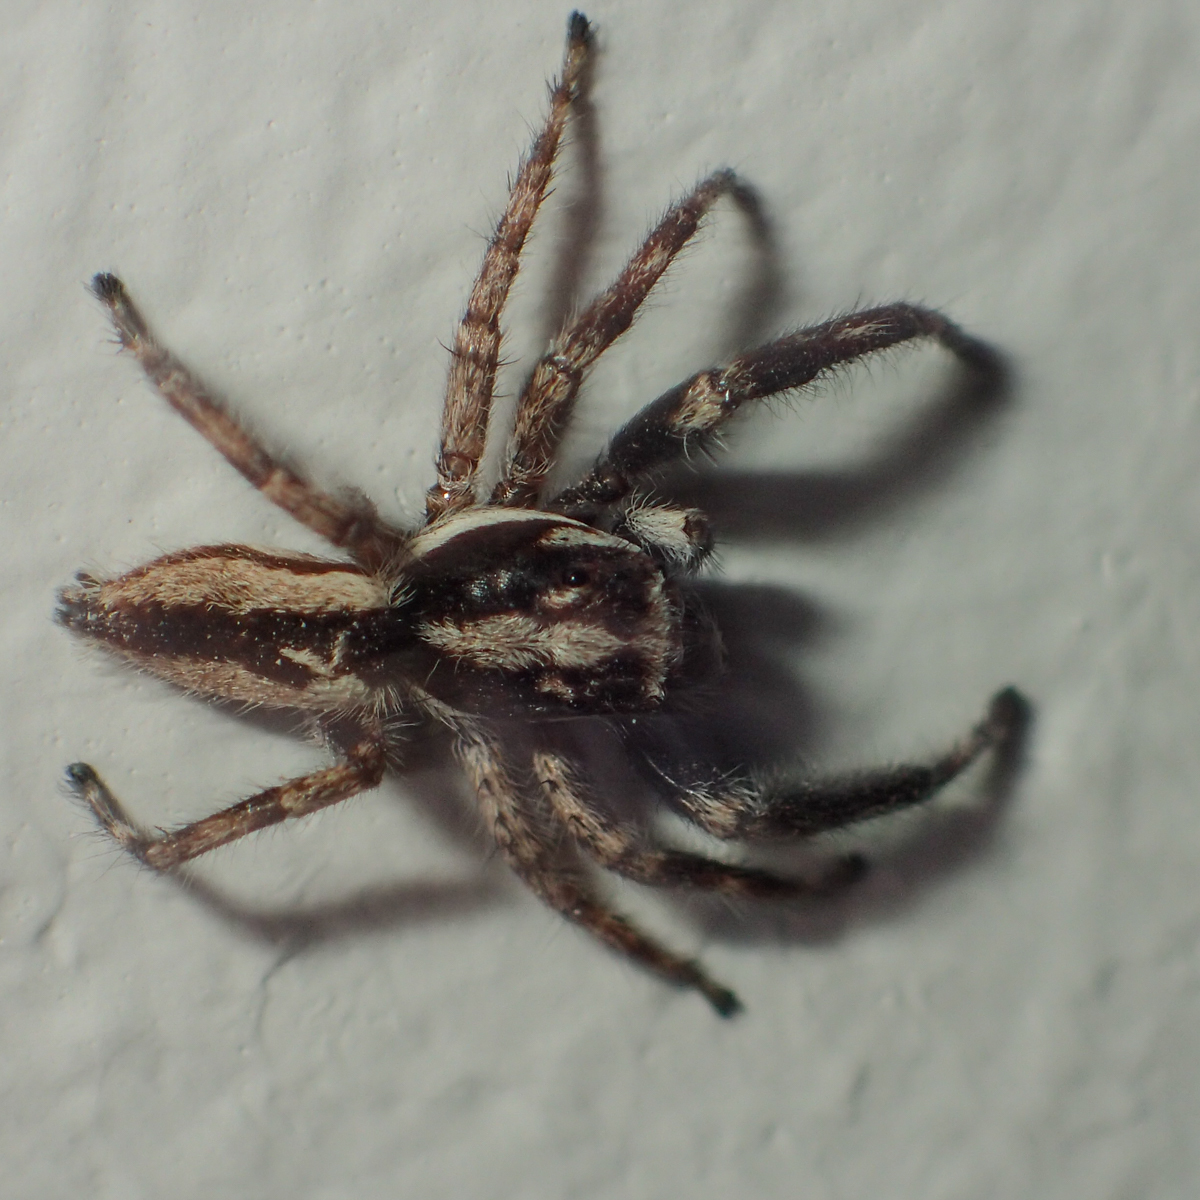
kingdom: Animalia
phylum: Arthropoda
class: Arachnida
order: Araneae
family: Salticidae
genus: Menemerus
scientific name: Menemerus bivittatus
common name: Gray wall jumper
